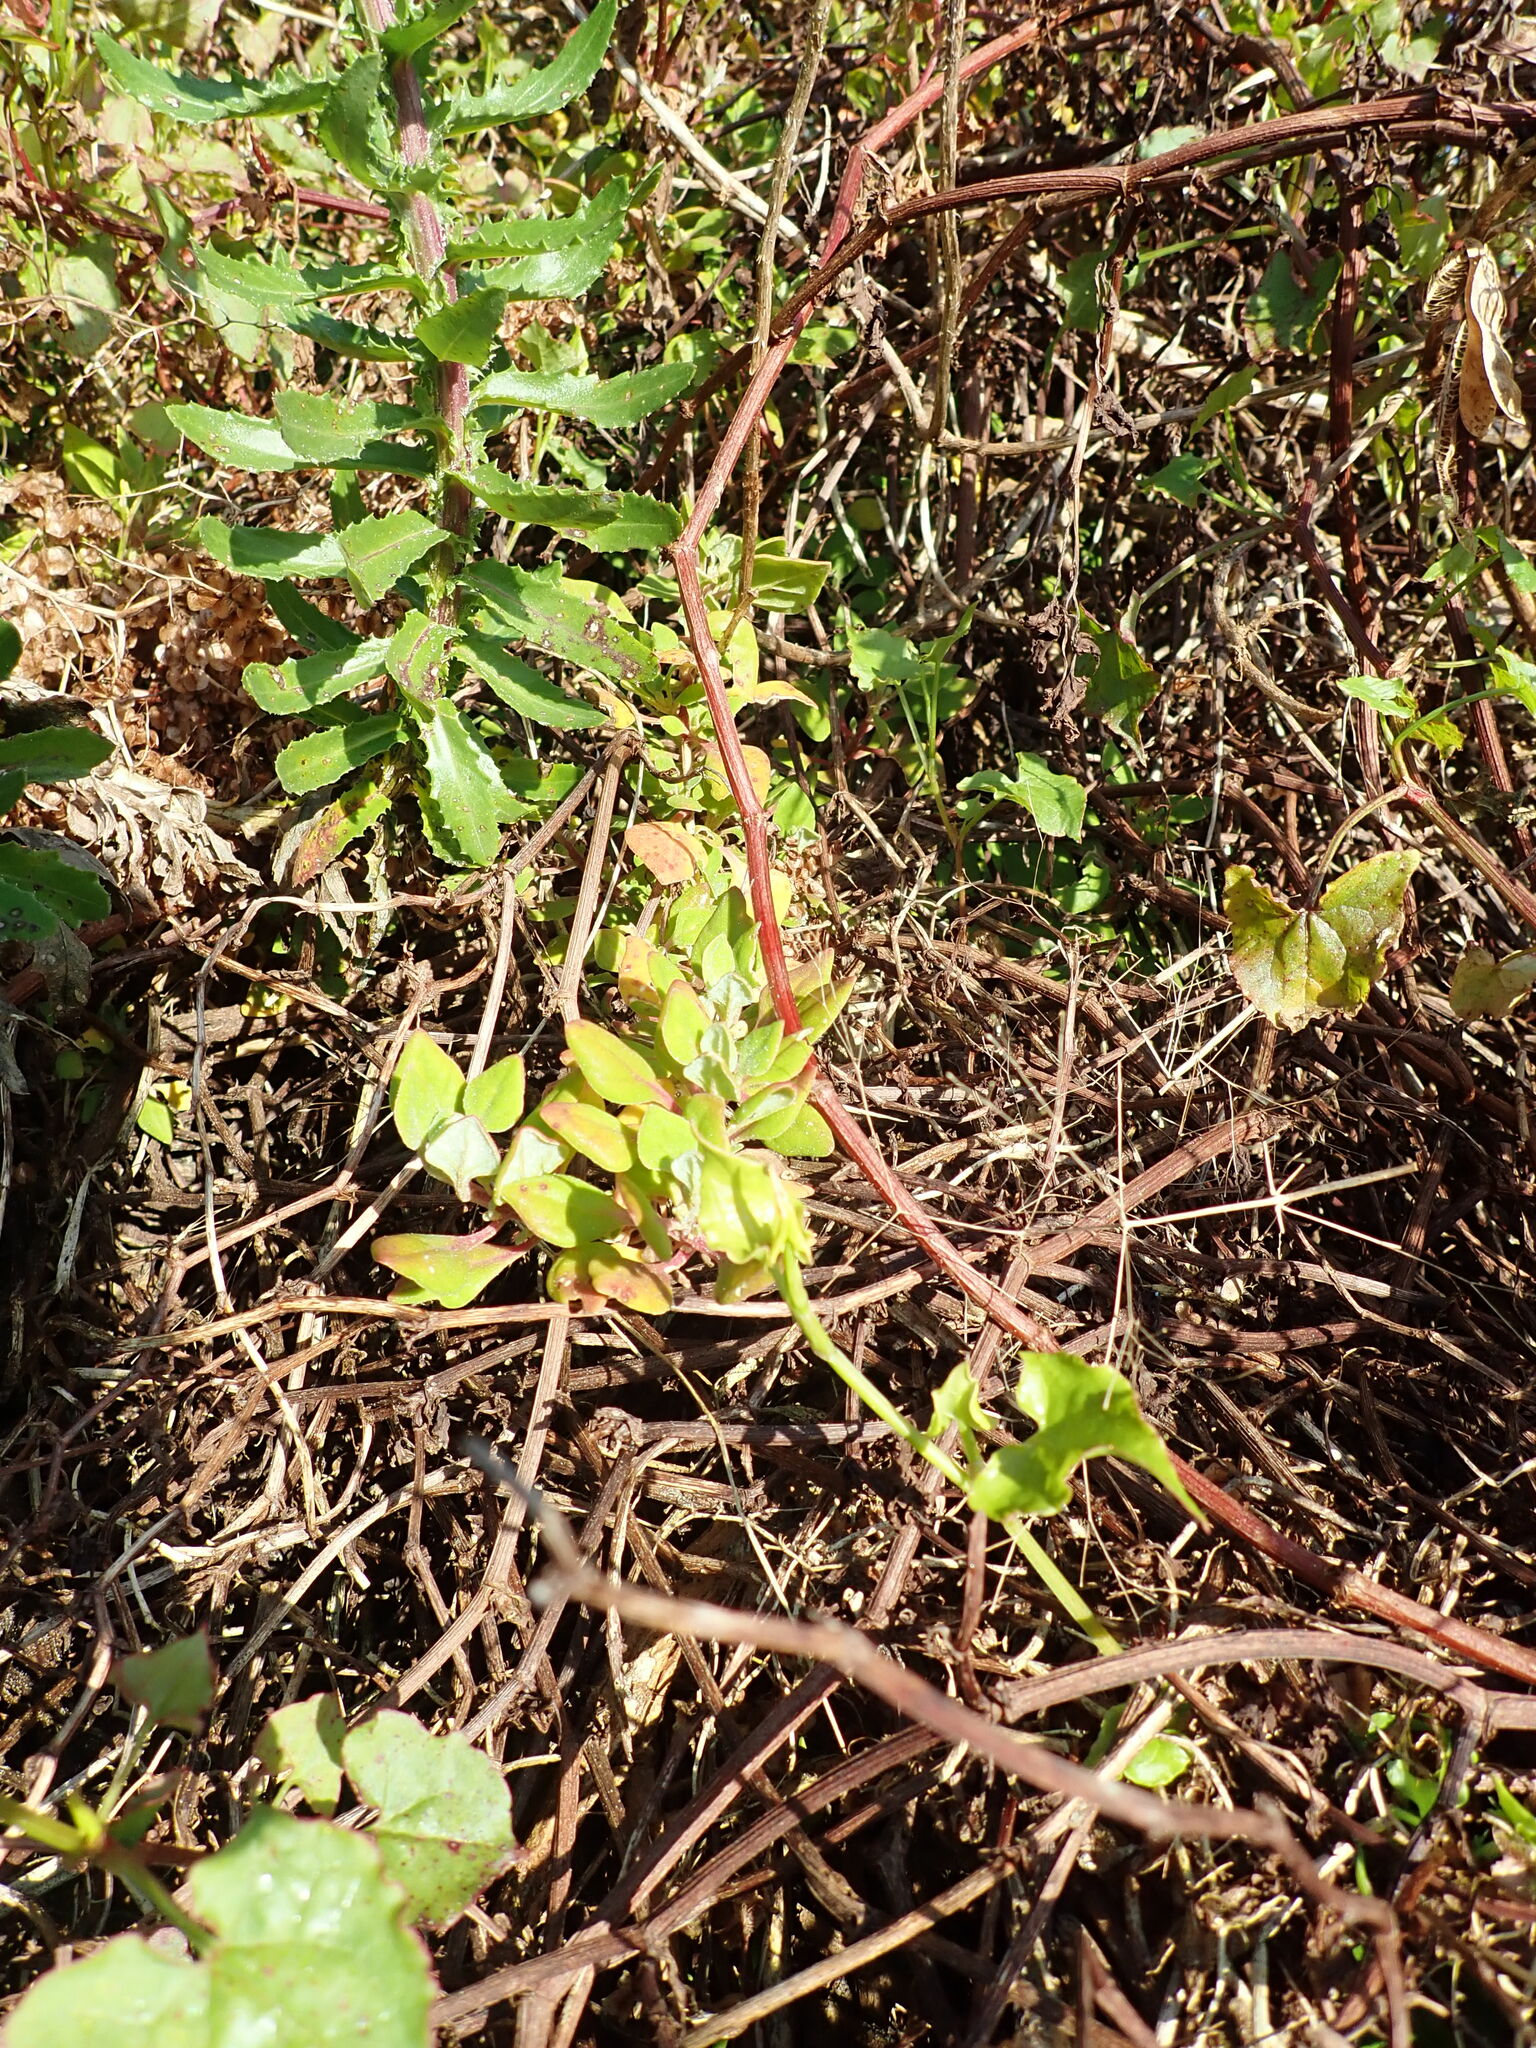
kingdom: Plantae
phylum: Tracheophyta
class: Magnoliopsida
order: Caryophyllales
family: Aizoaceae
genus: Tetragonia
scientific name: Tetragonia implexicoma
